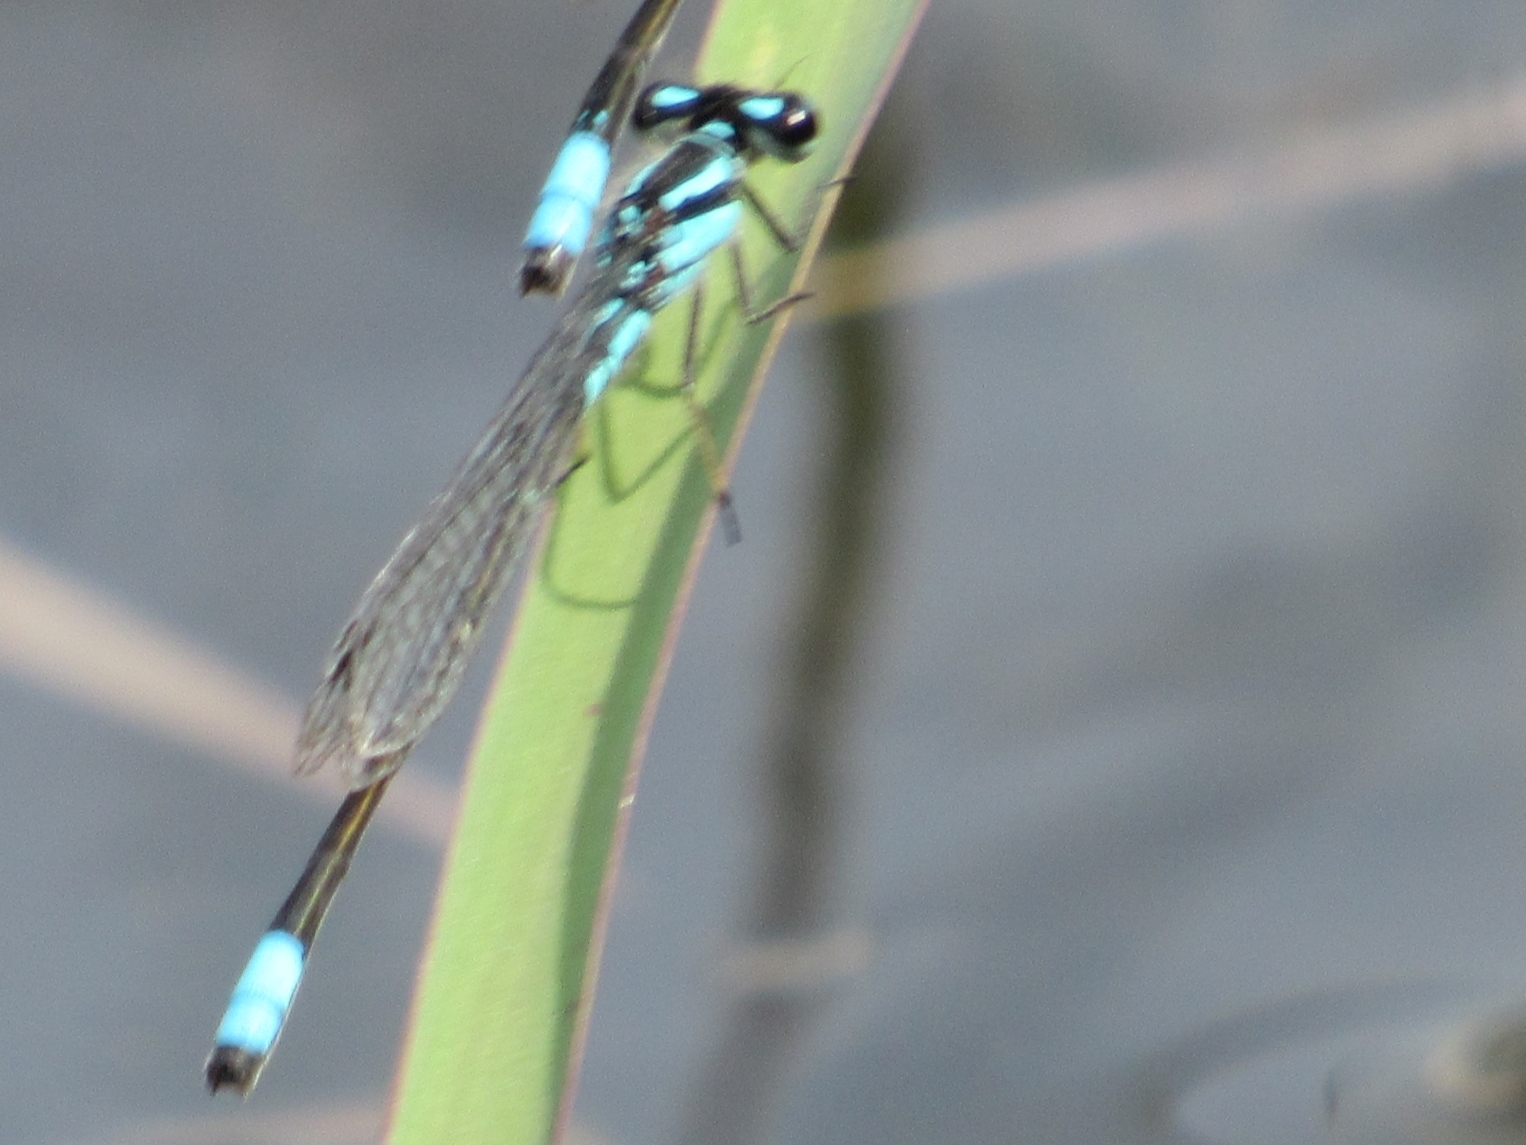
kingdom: Animalia
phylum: Arthropoda
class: Insecta
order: Odonata
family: Coenagrionidae
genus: Enallagma
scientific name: Enallagma geminatum
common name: Skimming bluet
